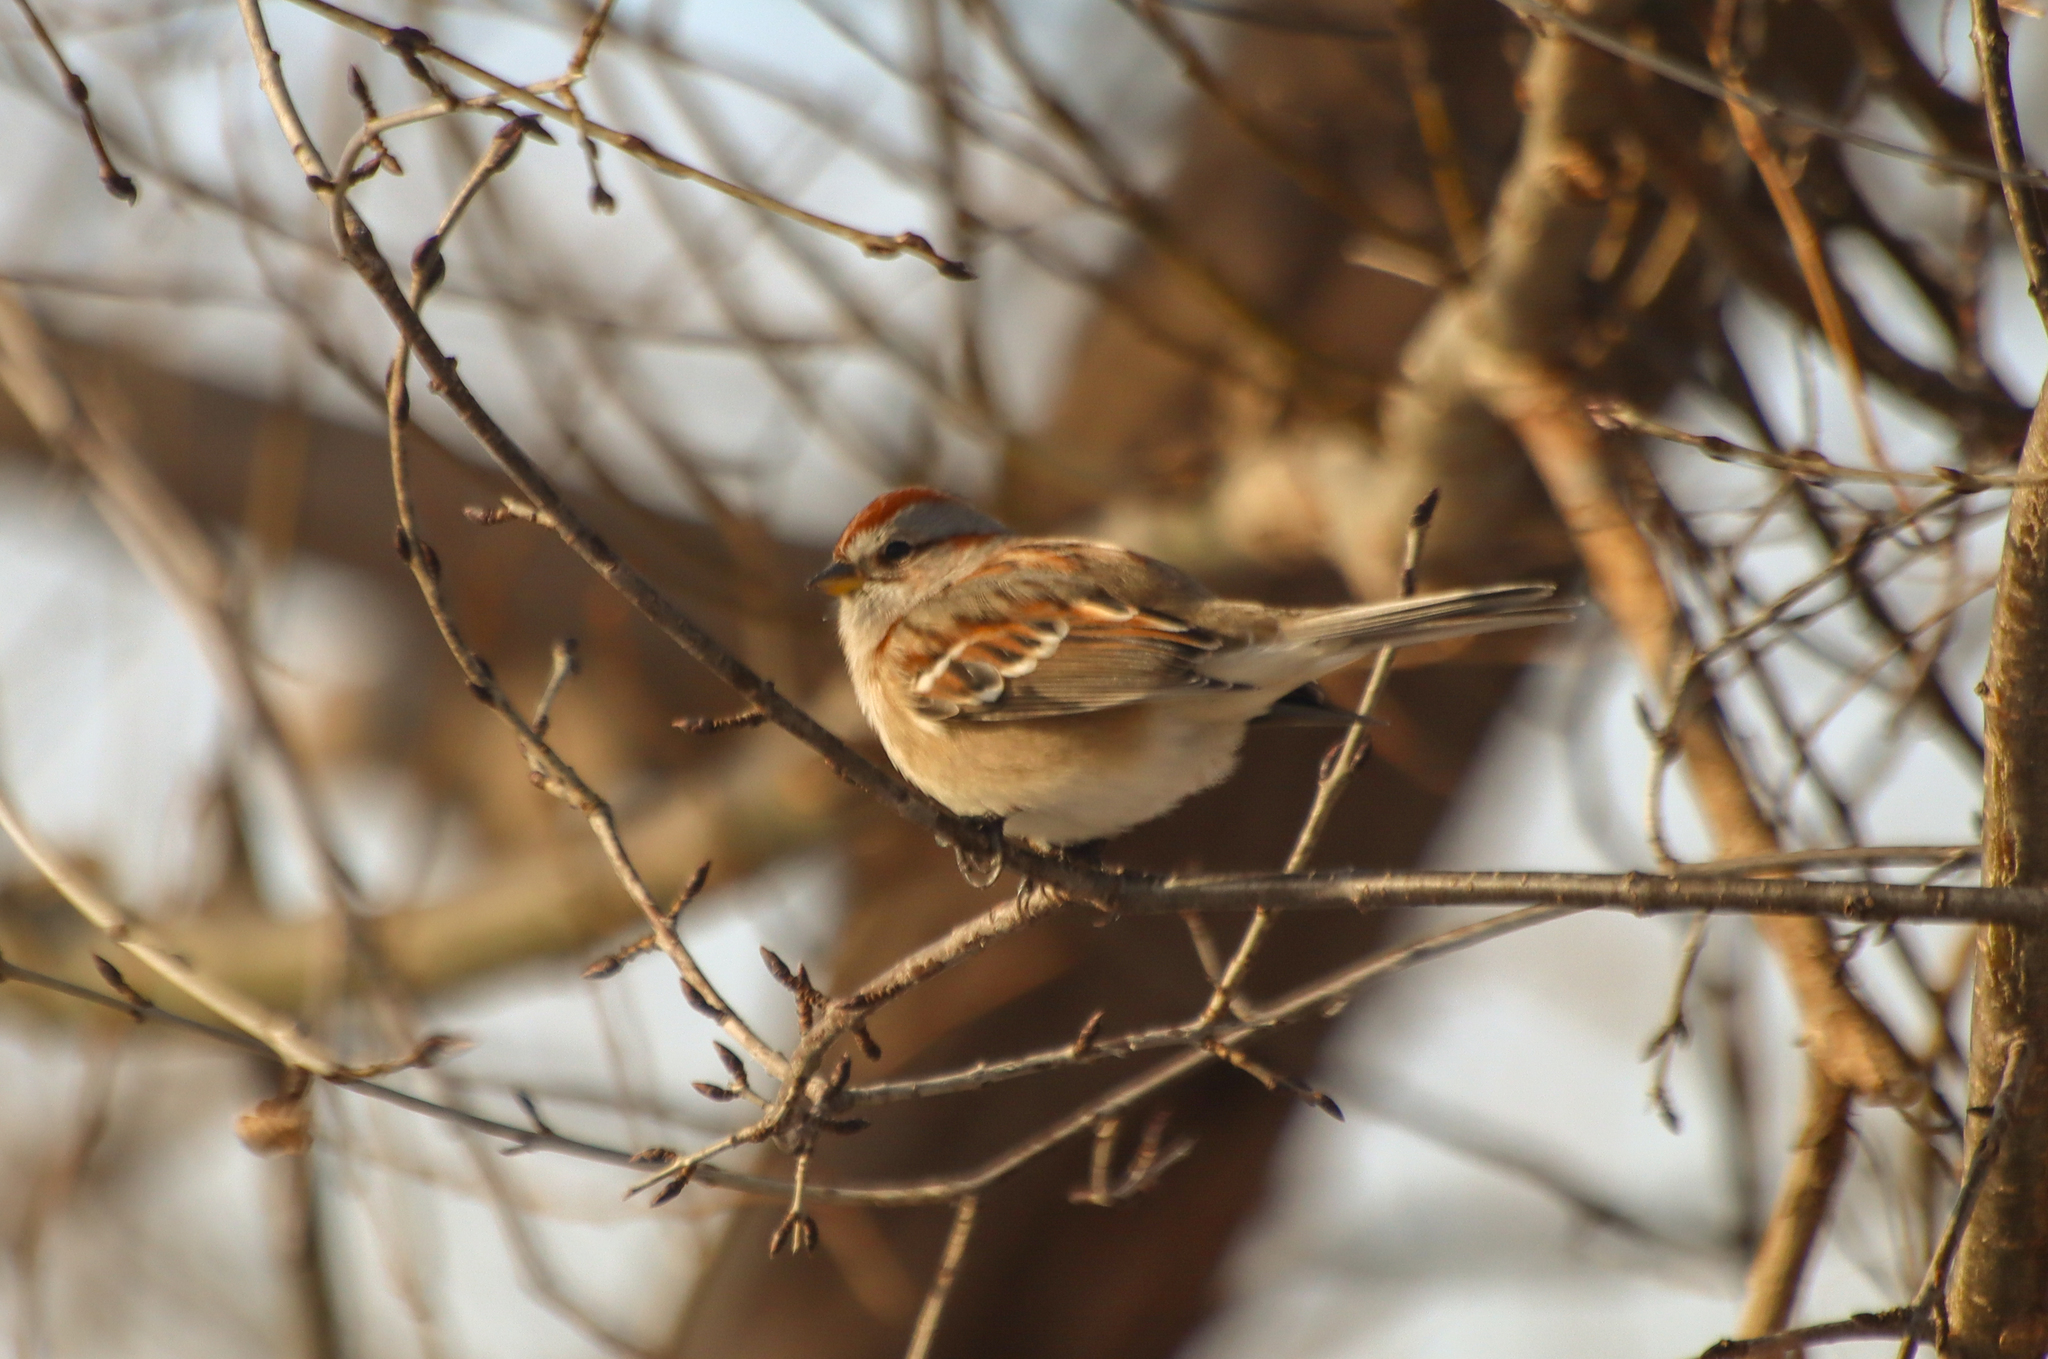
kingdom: Animalia
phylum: Chordata
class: Aves
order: Passeriformes
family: Passerellidae
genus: Spizelloides
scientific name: Spizelloides arborea
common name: American tree sparrow
